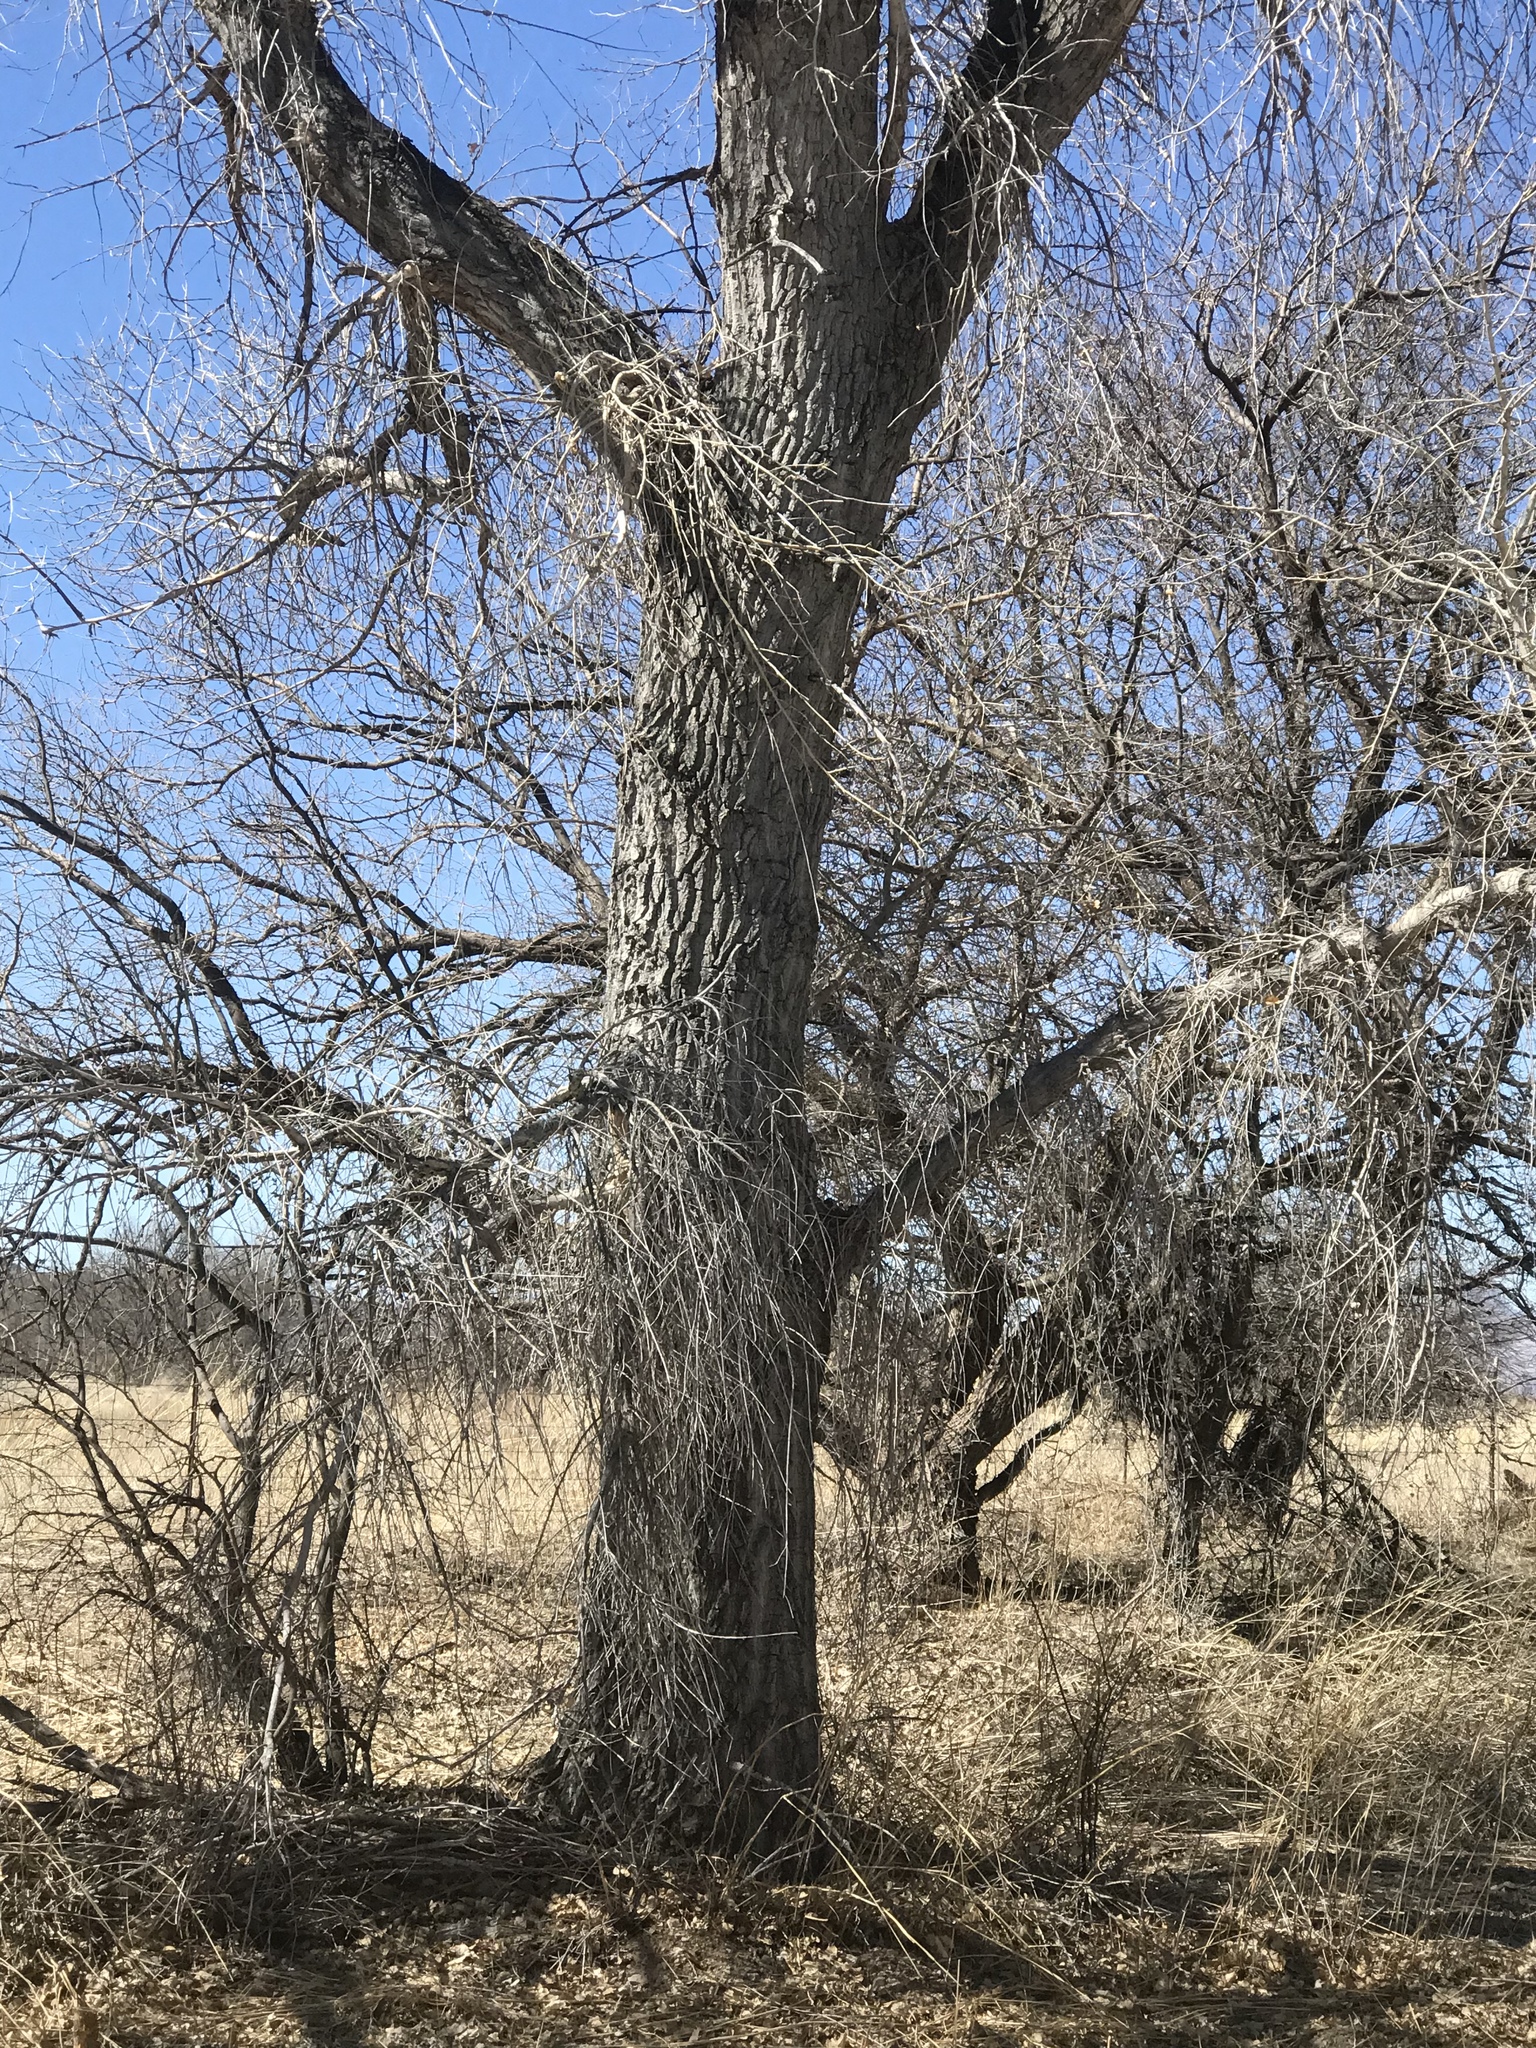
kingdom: Plantae
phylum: Tracheophyta
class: Magnoliopsida
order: Malpighiales
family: Salicaceae
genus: Populus
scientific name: Populus fremontii
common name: Fremont's cottonwood
